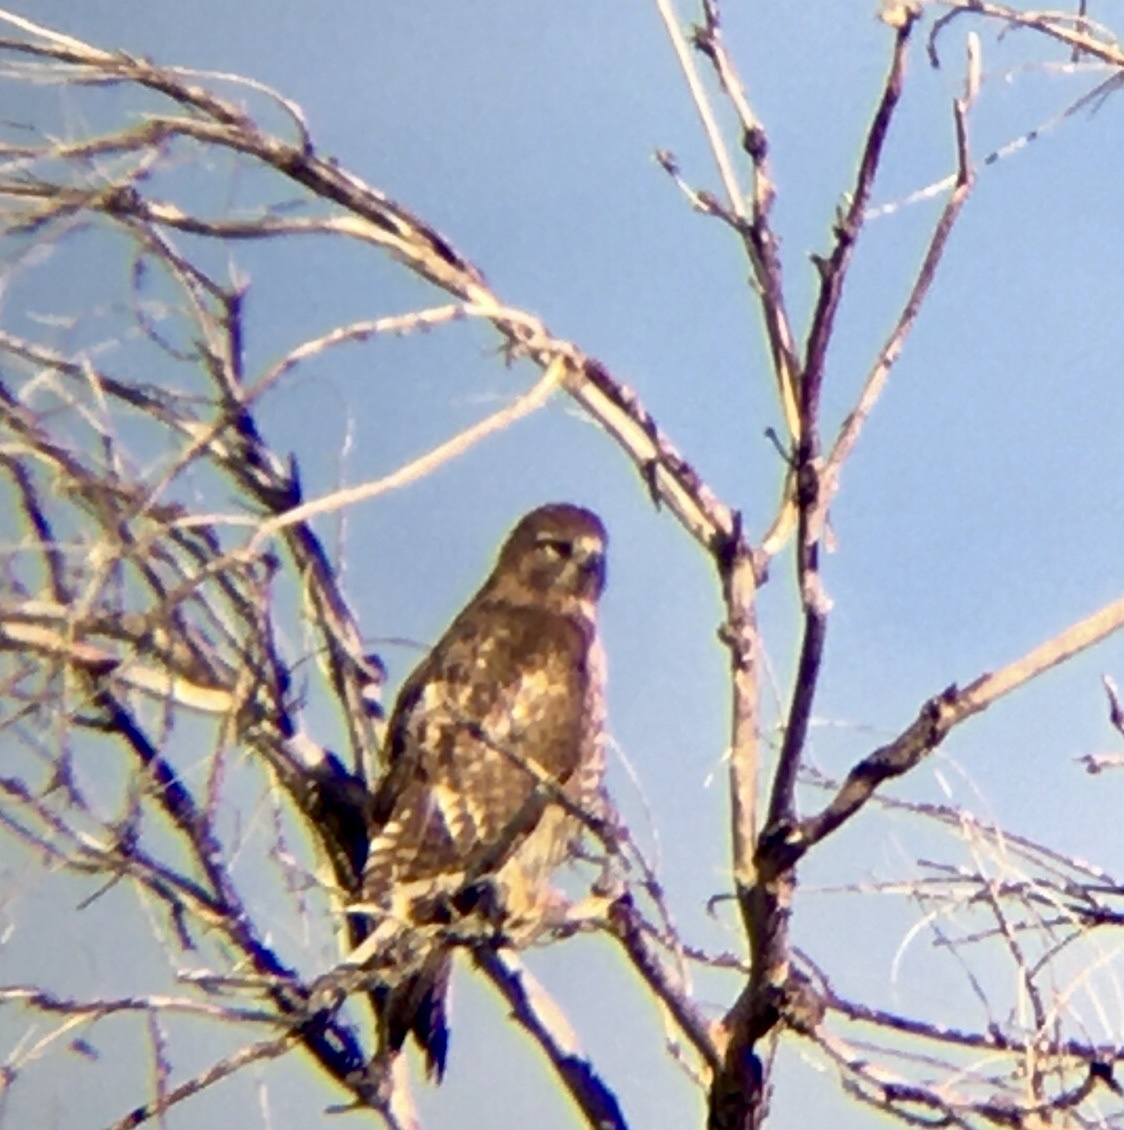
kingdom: Animalia
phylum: Chordata
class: Aves
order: Accipitriformes
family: Accipitridae
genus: Buteo
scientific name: Buteo jamaicensis
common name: Red-tailed hawk
